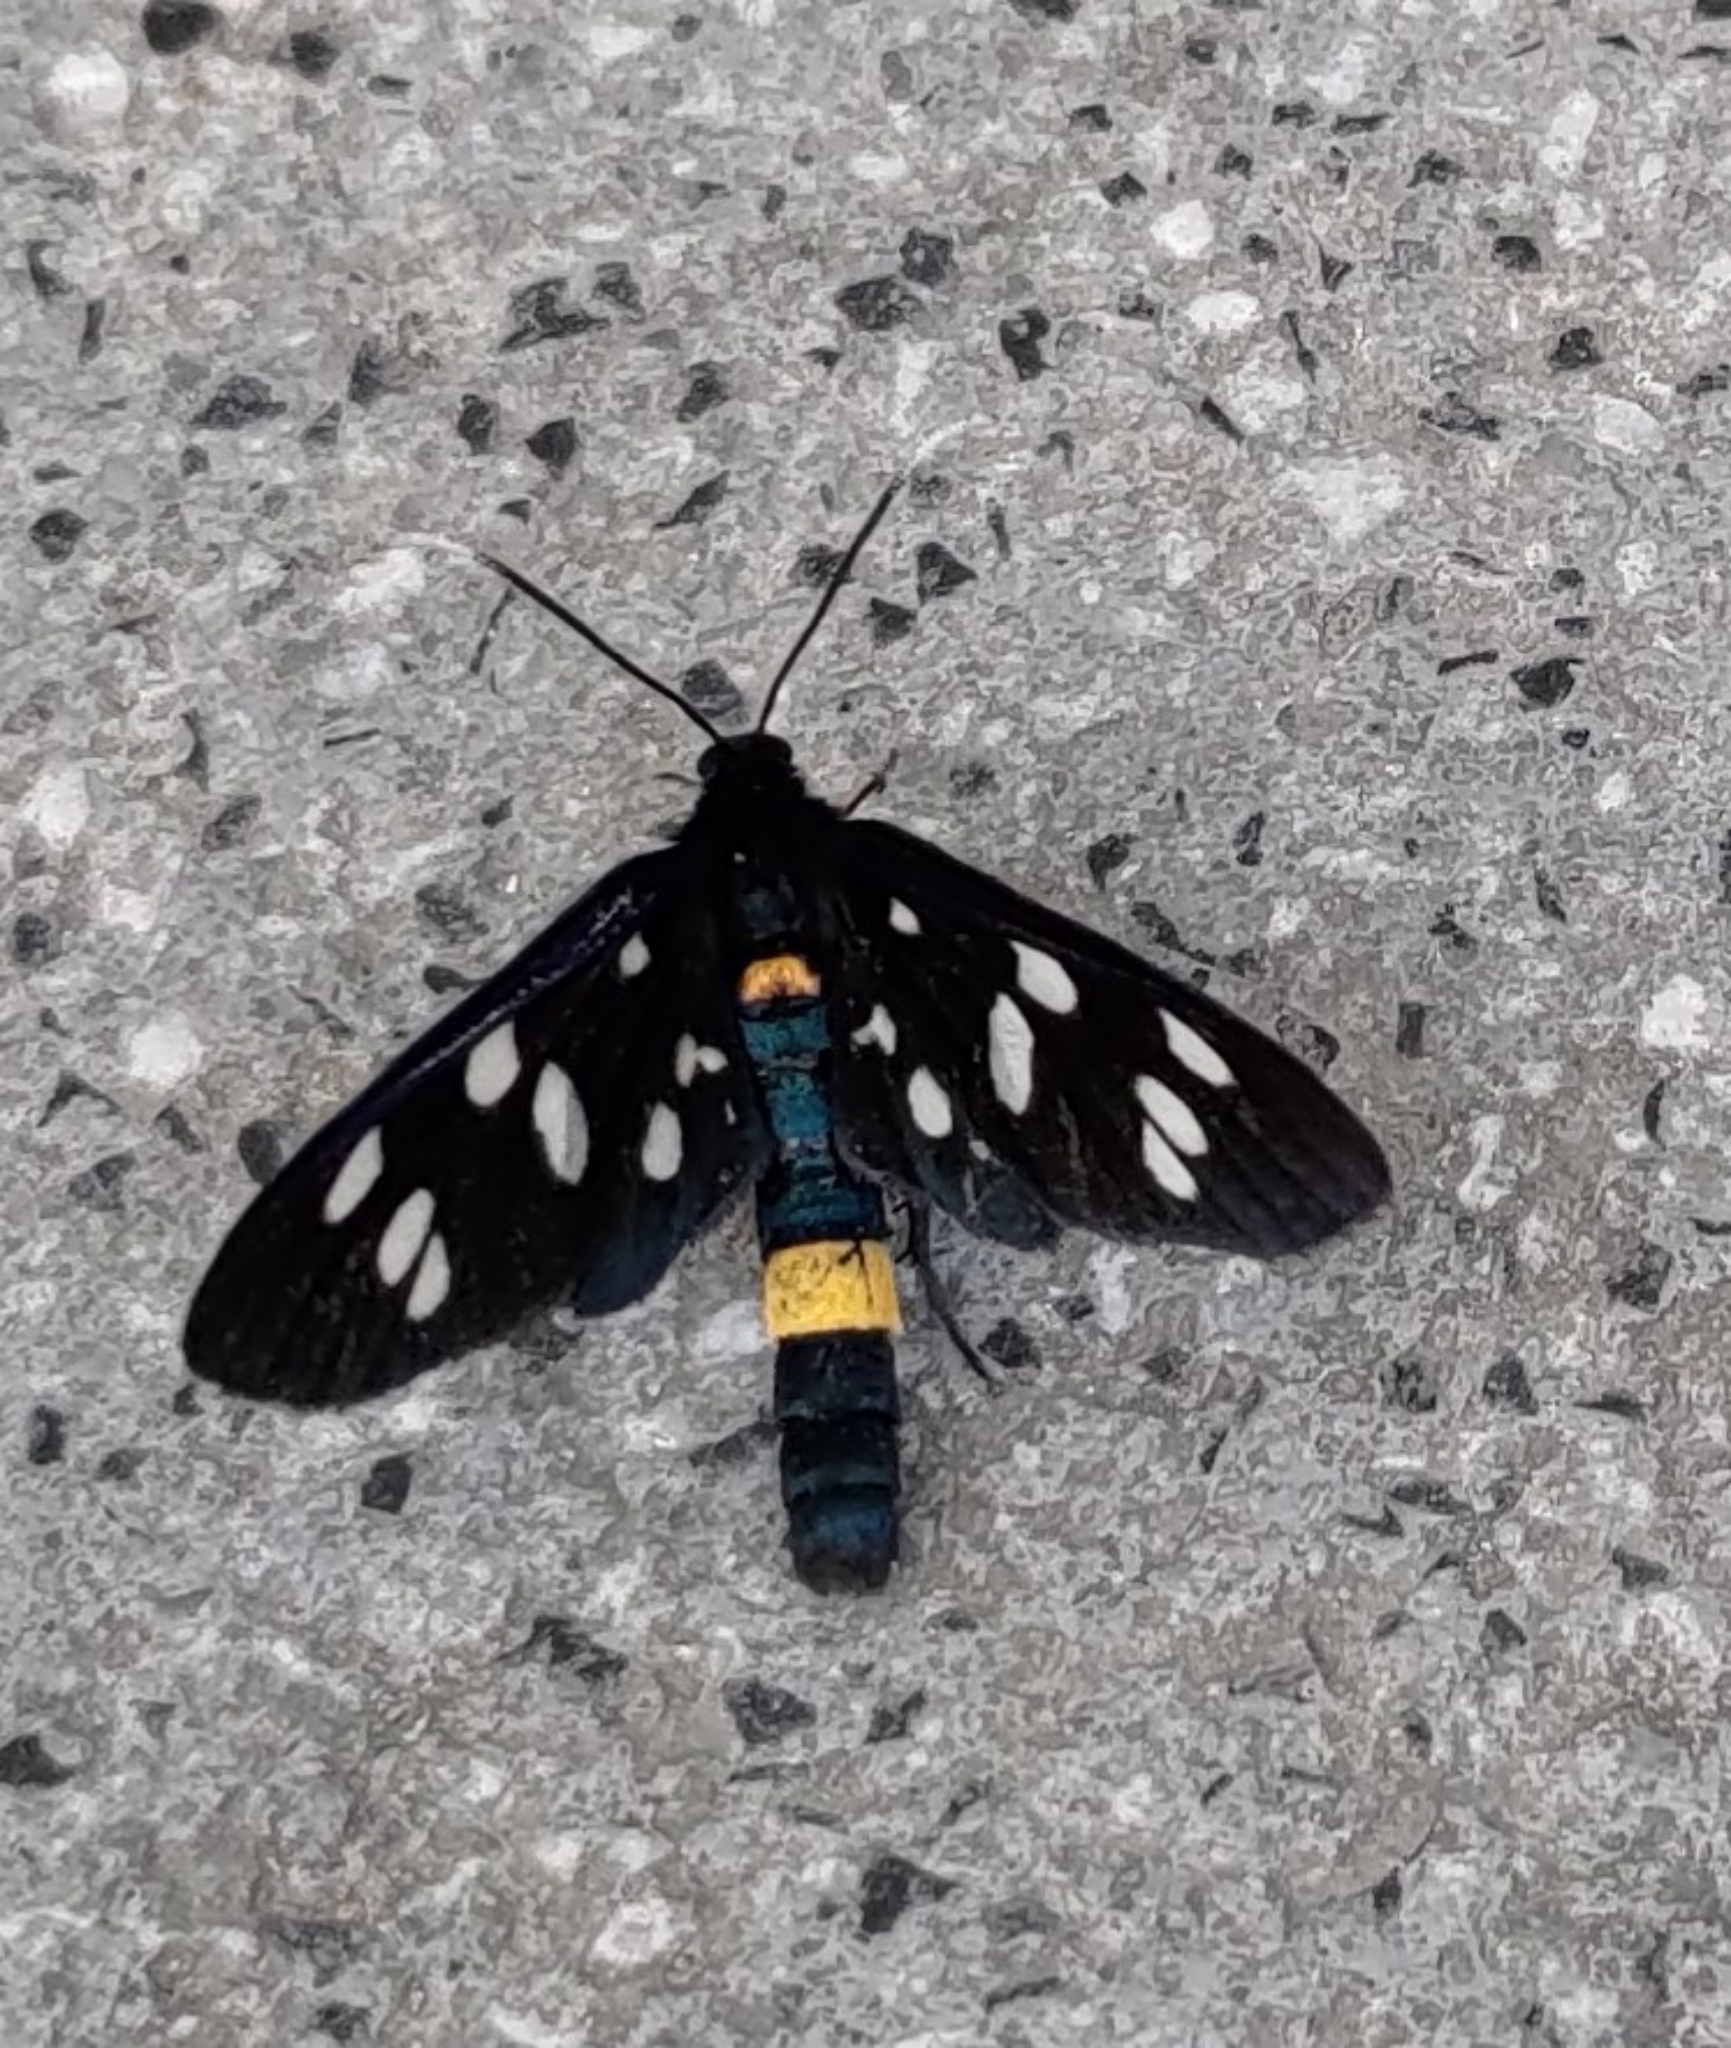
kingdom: Animalia
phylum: Arthropoda
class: Insecta
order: Lepidoptera
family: Erebidae
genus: Amata
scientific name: Amata phegea
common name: Nine-spotted
